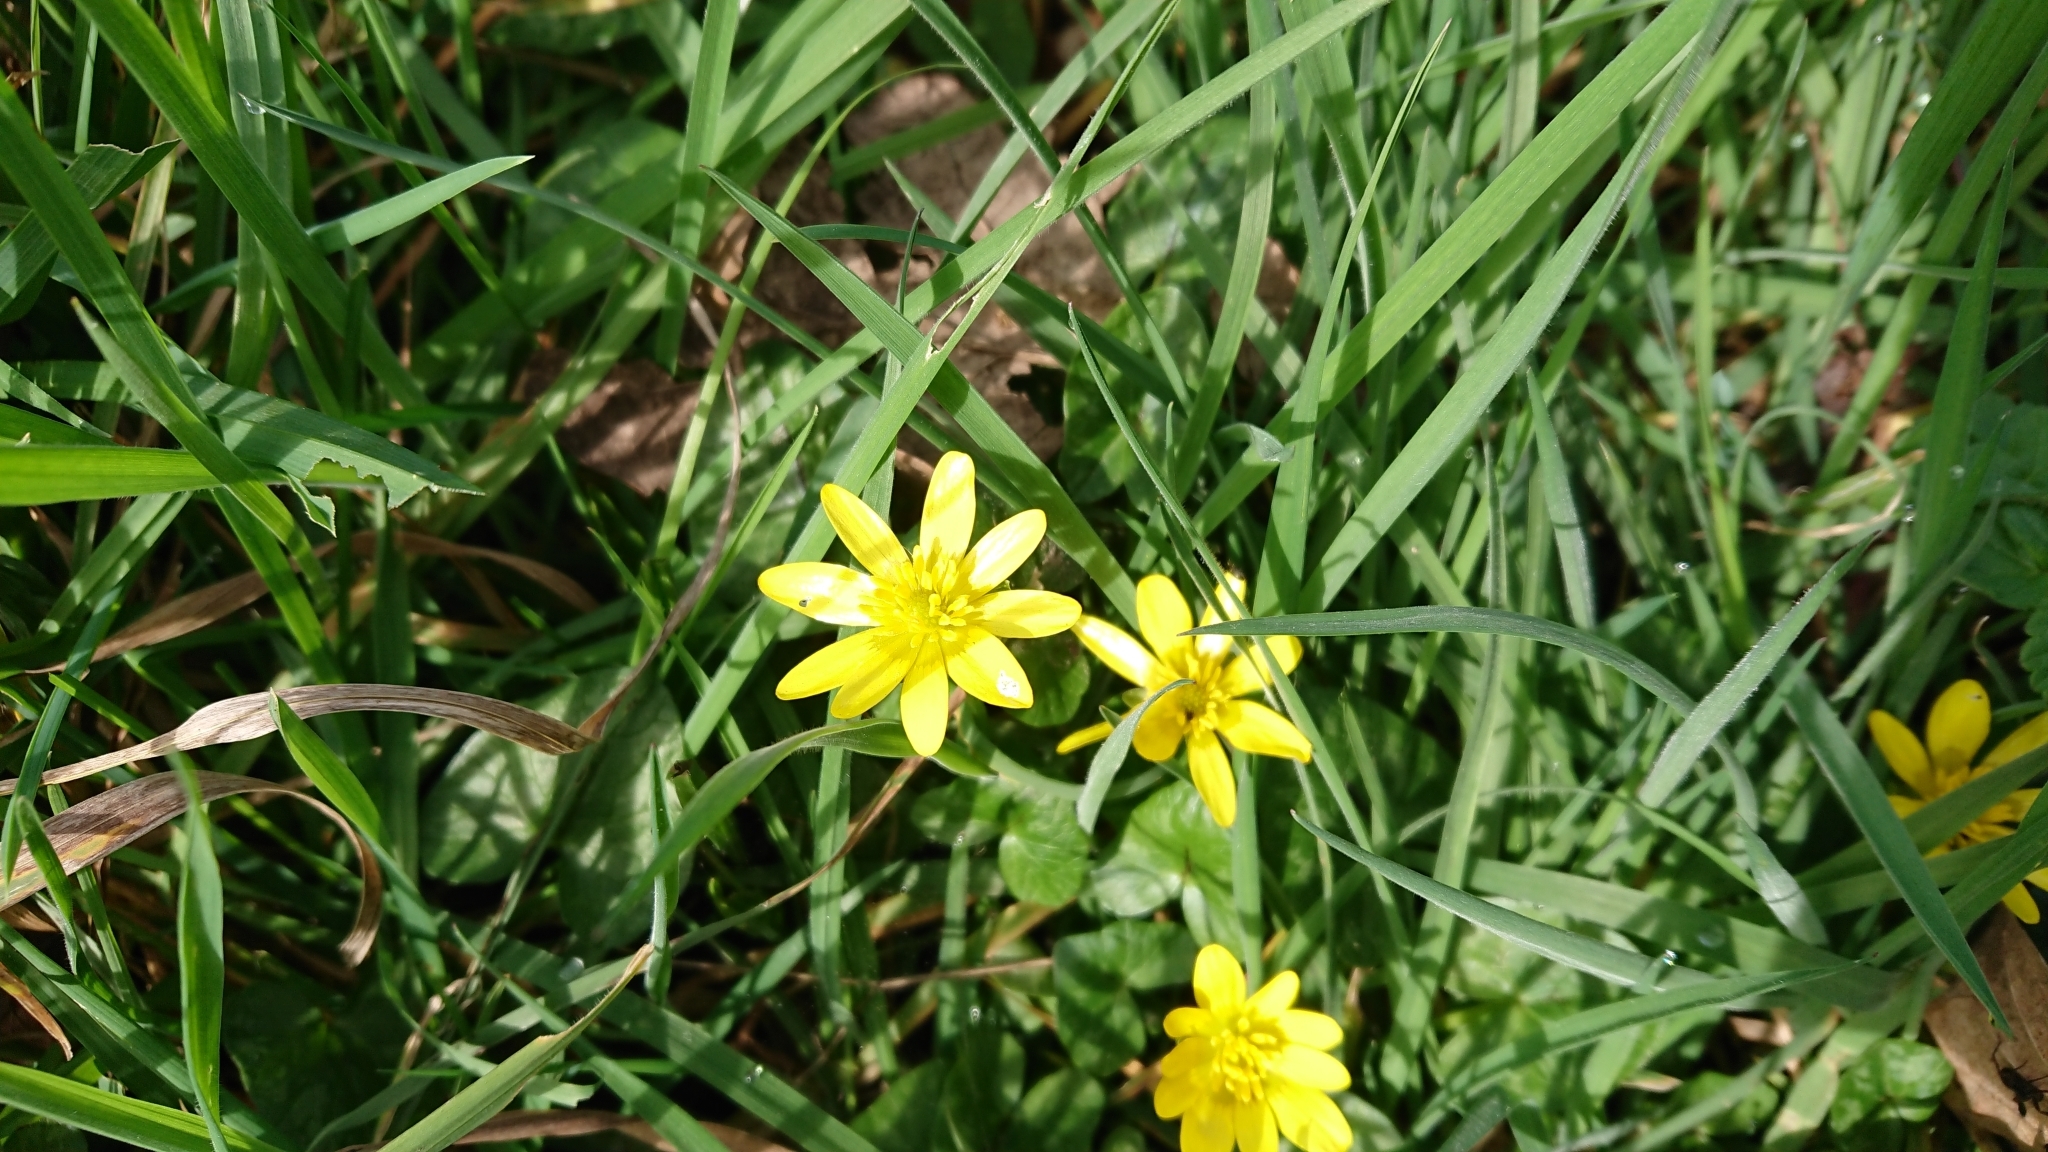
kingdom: Plantae
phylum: Tracheophyta
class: Magnoliopsida
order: Ranunculales
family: Ranunculaceae
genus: Ficaria
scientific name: Ficaria verna
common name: Lesser celandine
